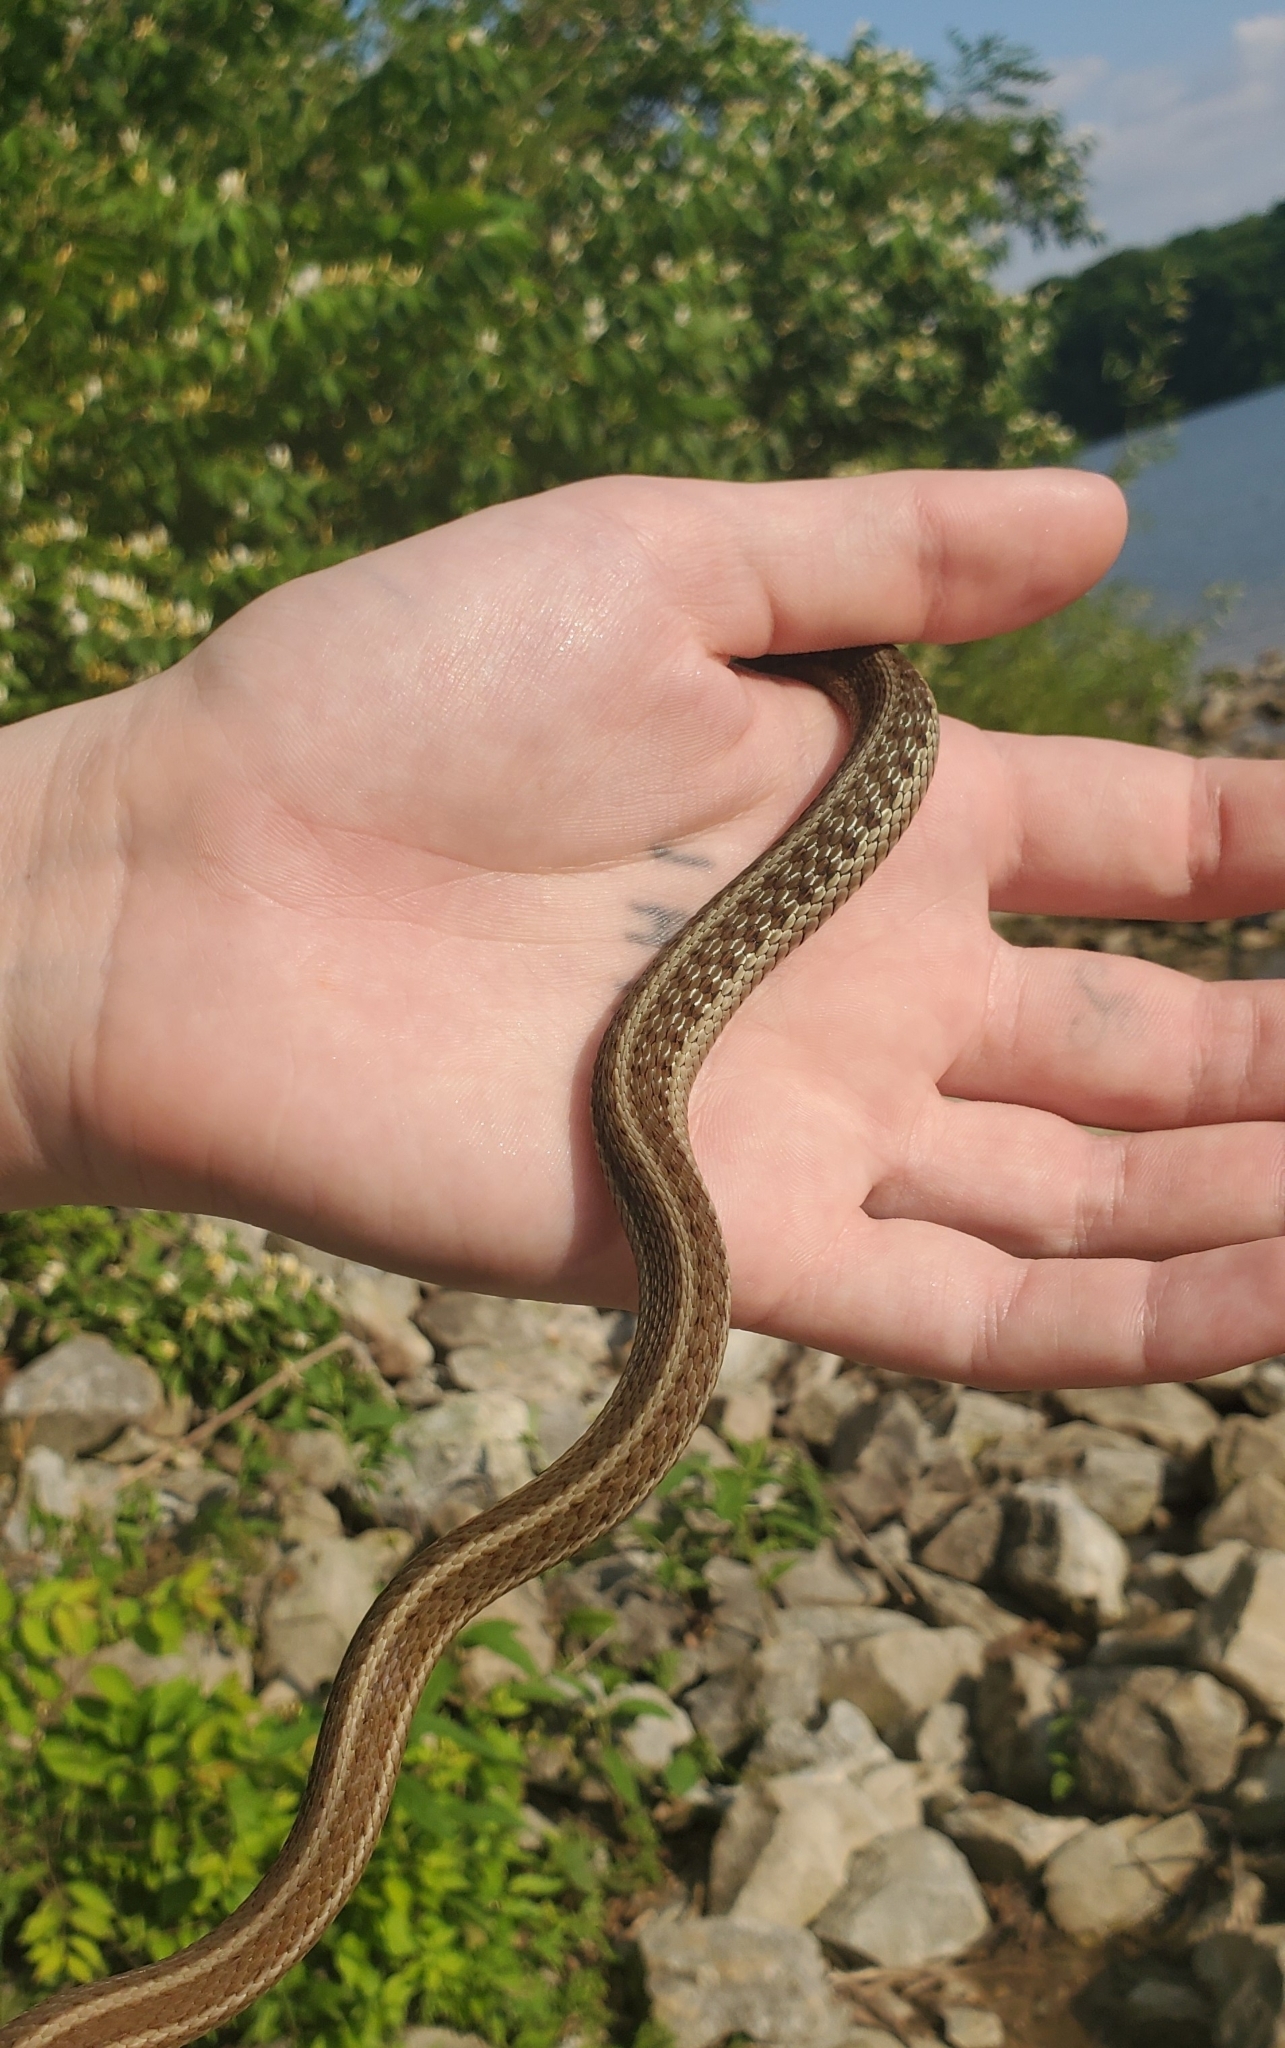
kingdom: Animalia
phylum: Chordata
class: Squamata
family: Colubridae
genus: Thamnophis
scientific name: Thamnophis sirtalis
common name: Common garter snake
